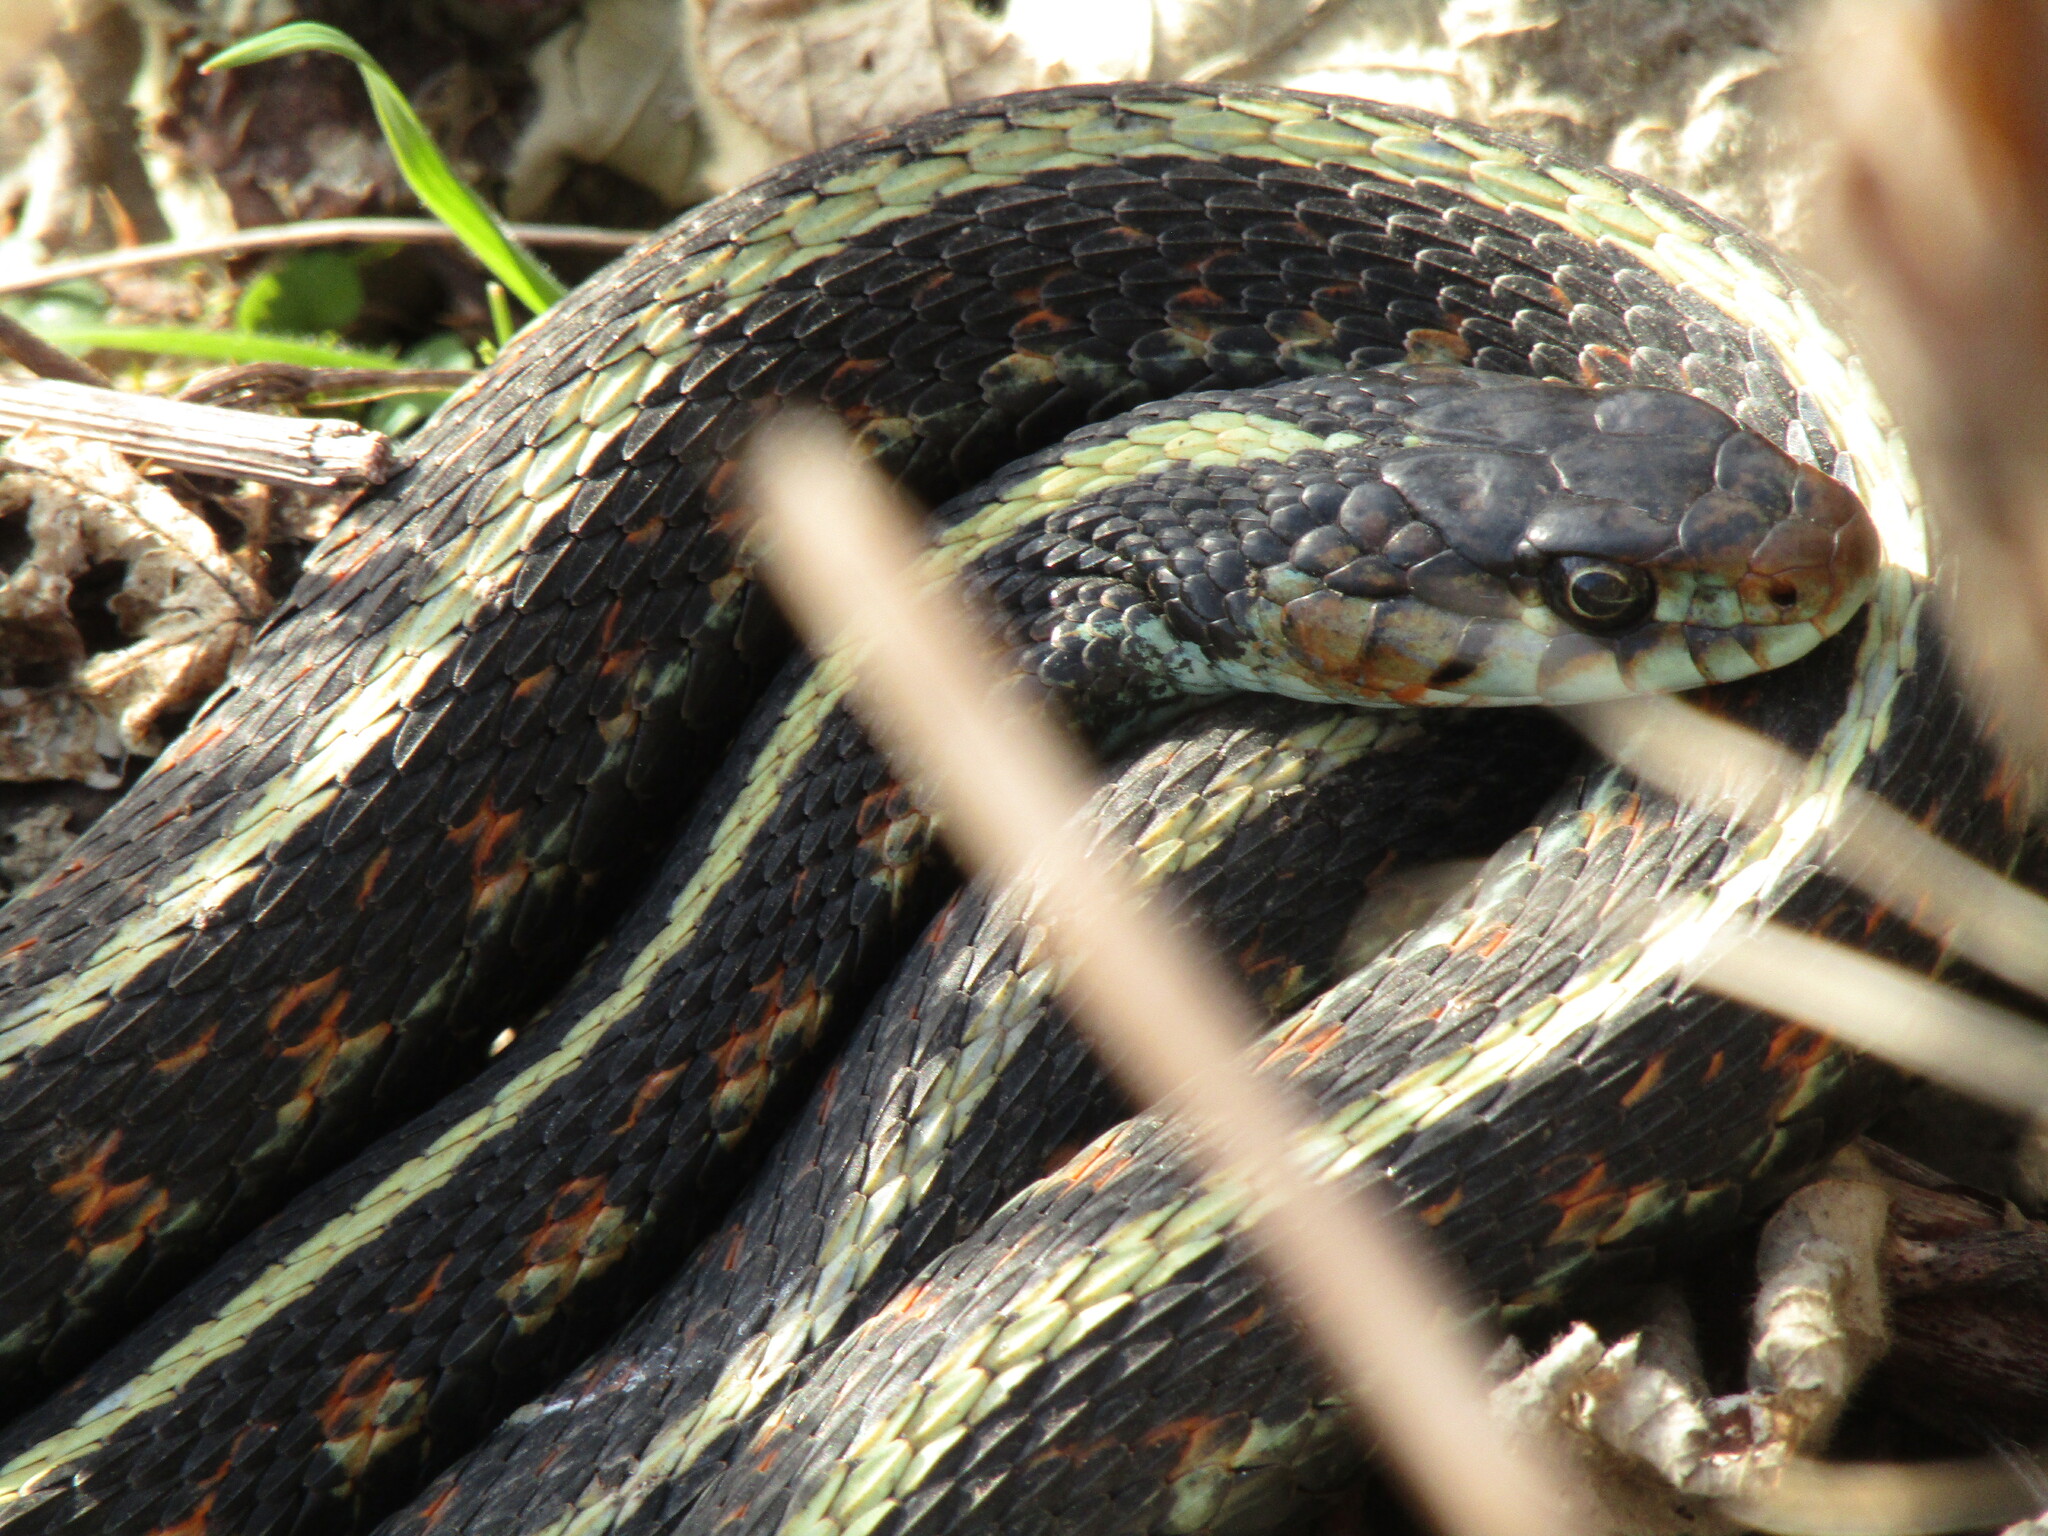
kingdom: Animalia
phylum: Chordata
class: Squamata
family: Colubridae
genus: Thamnophis
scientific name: Thamnophis sirtalis
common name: Common garter snake
